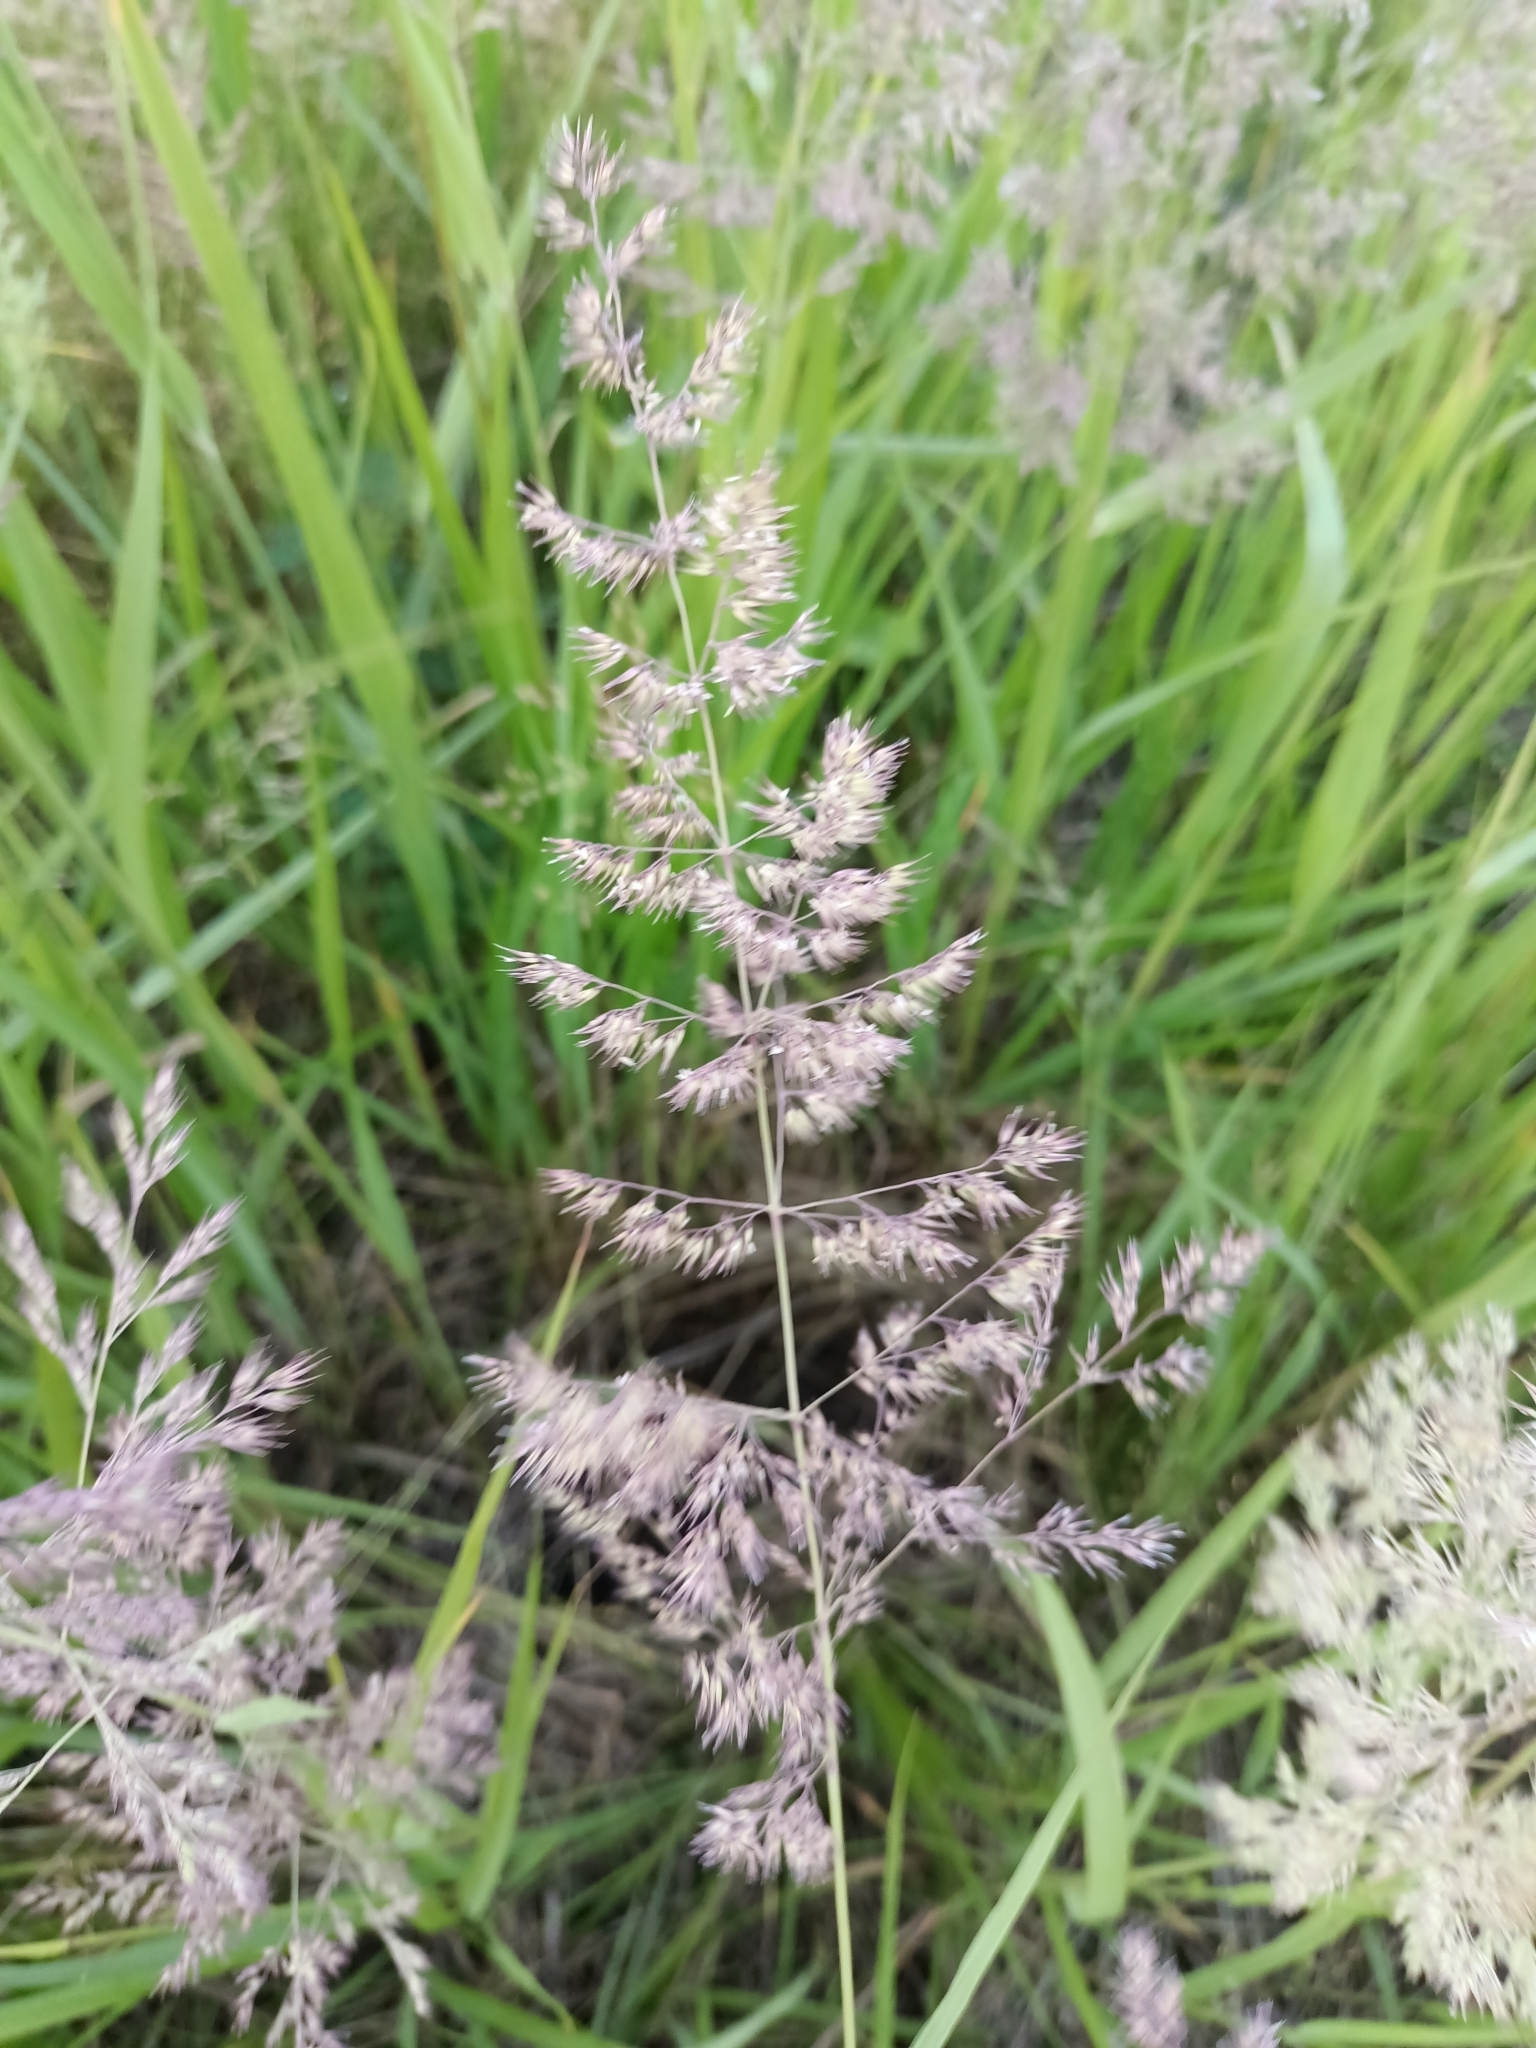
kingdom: Plantae
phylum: Tracheophyta
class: Liliopsida
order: Poales
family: Poaceae
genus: Calamagrostis
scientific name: Calamagrostis epigejos
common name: Wood small-reed
